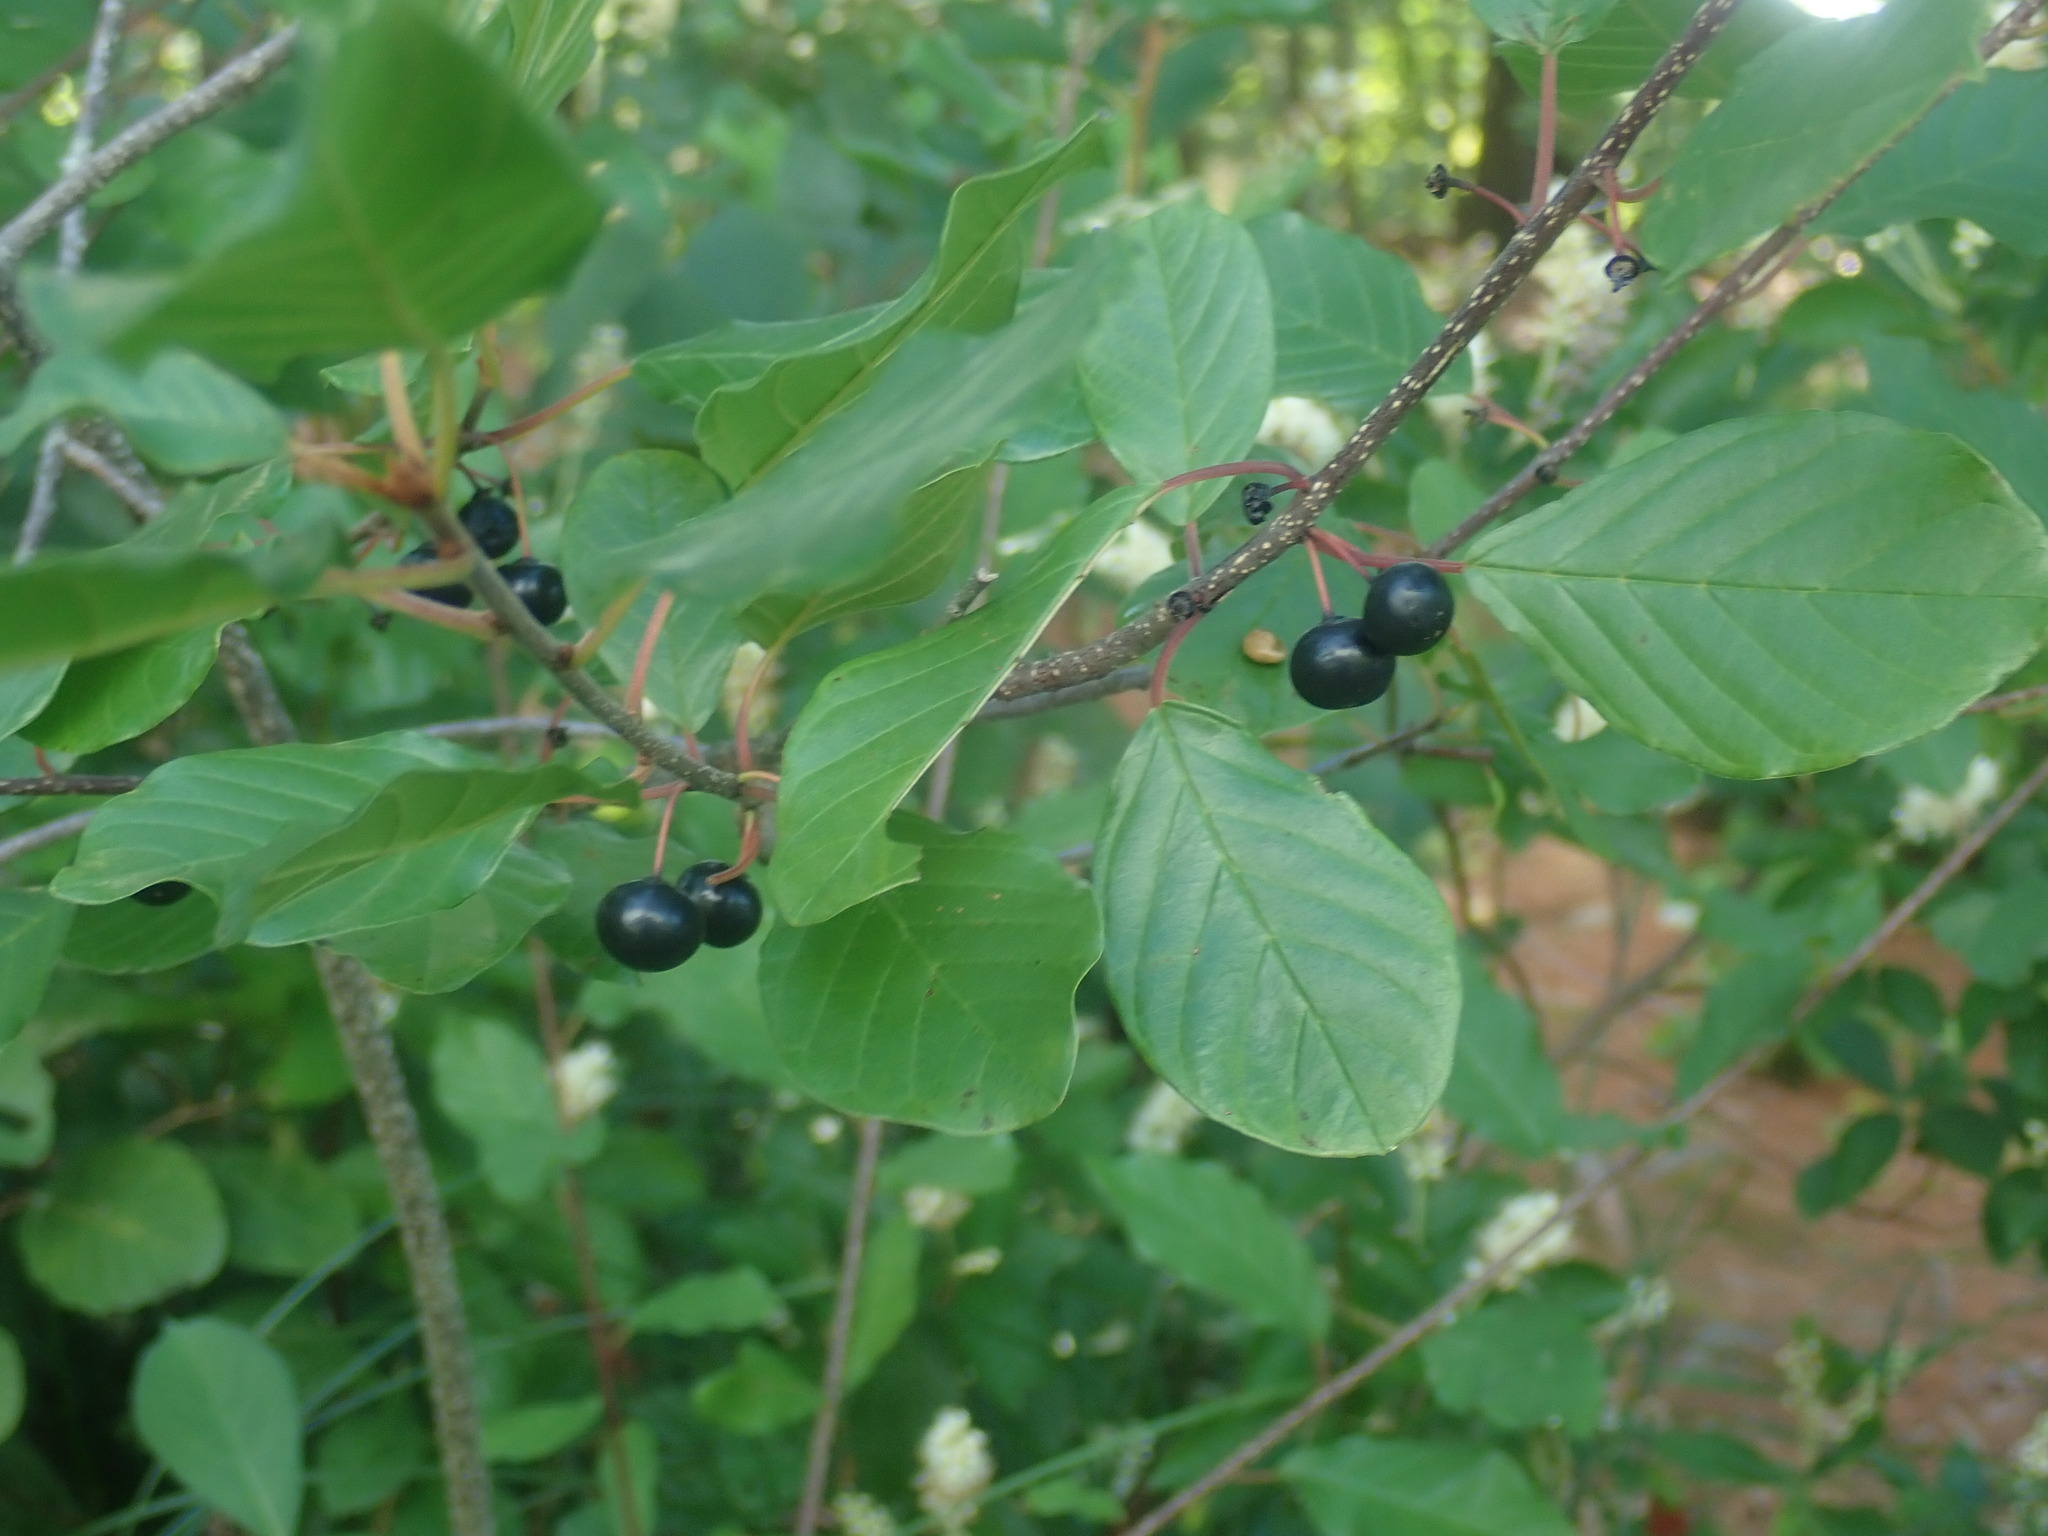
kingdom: Plantae
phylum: Tracheophyta
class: Magnoliopsida
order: Rosales
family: Rhamnaceae
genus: Frangula
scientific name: Frangula alnus
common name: Alder buckthorn
